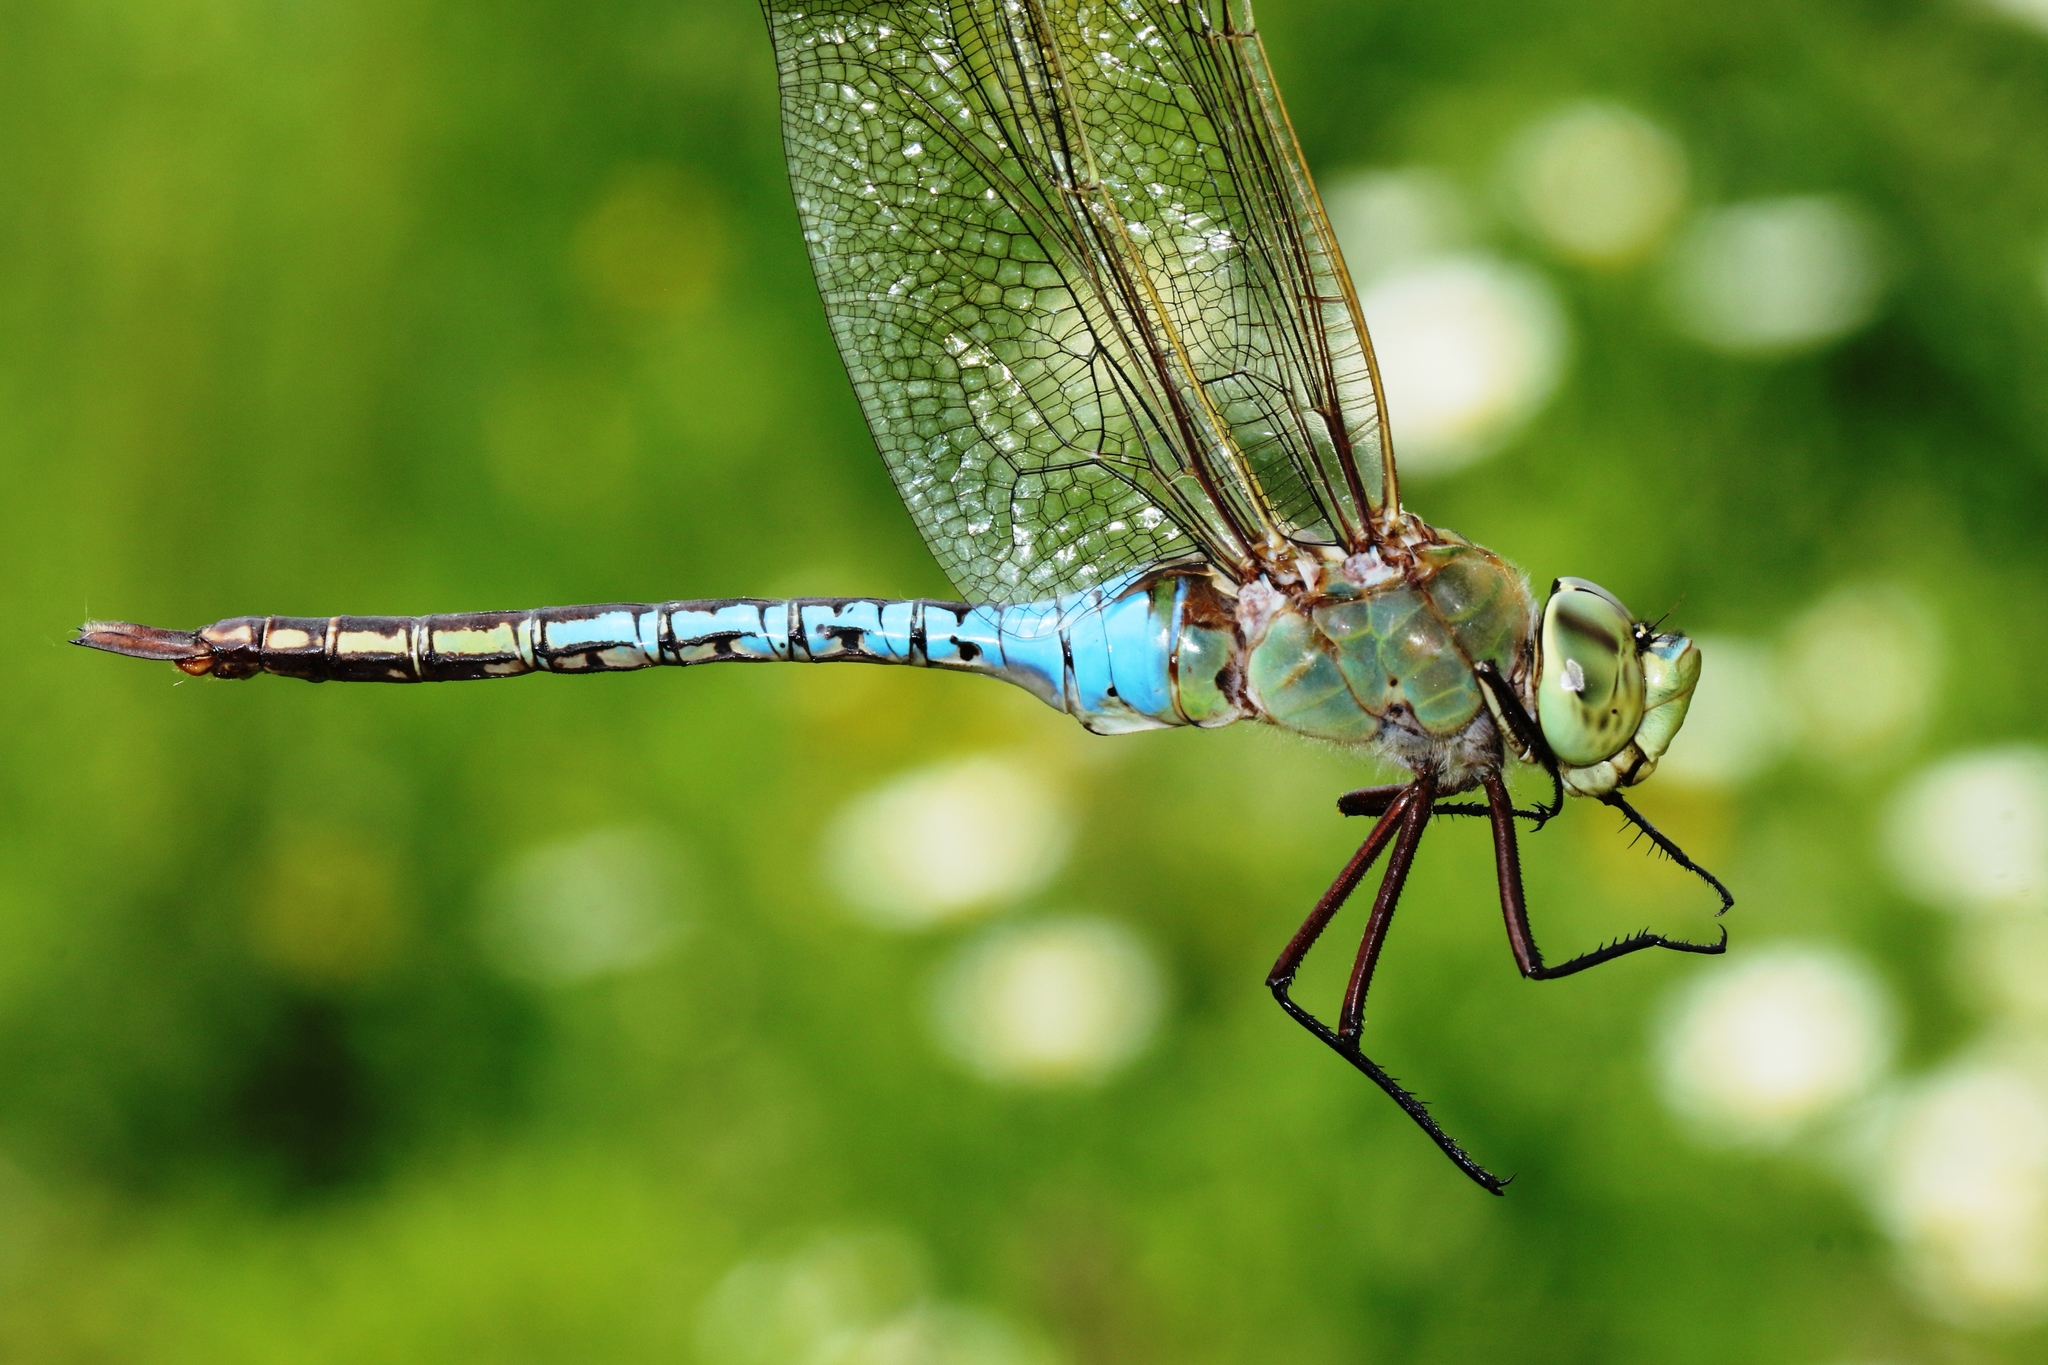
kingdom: Animalia
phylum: Arthropoda
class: Insecta
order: Odonata
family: Aeshnidae
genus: Anax
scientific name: Anax junius
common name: Common green darner
